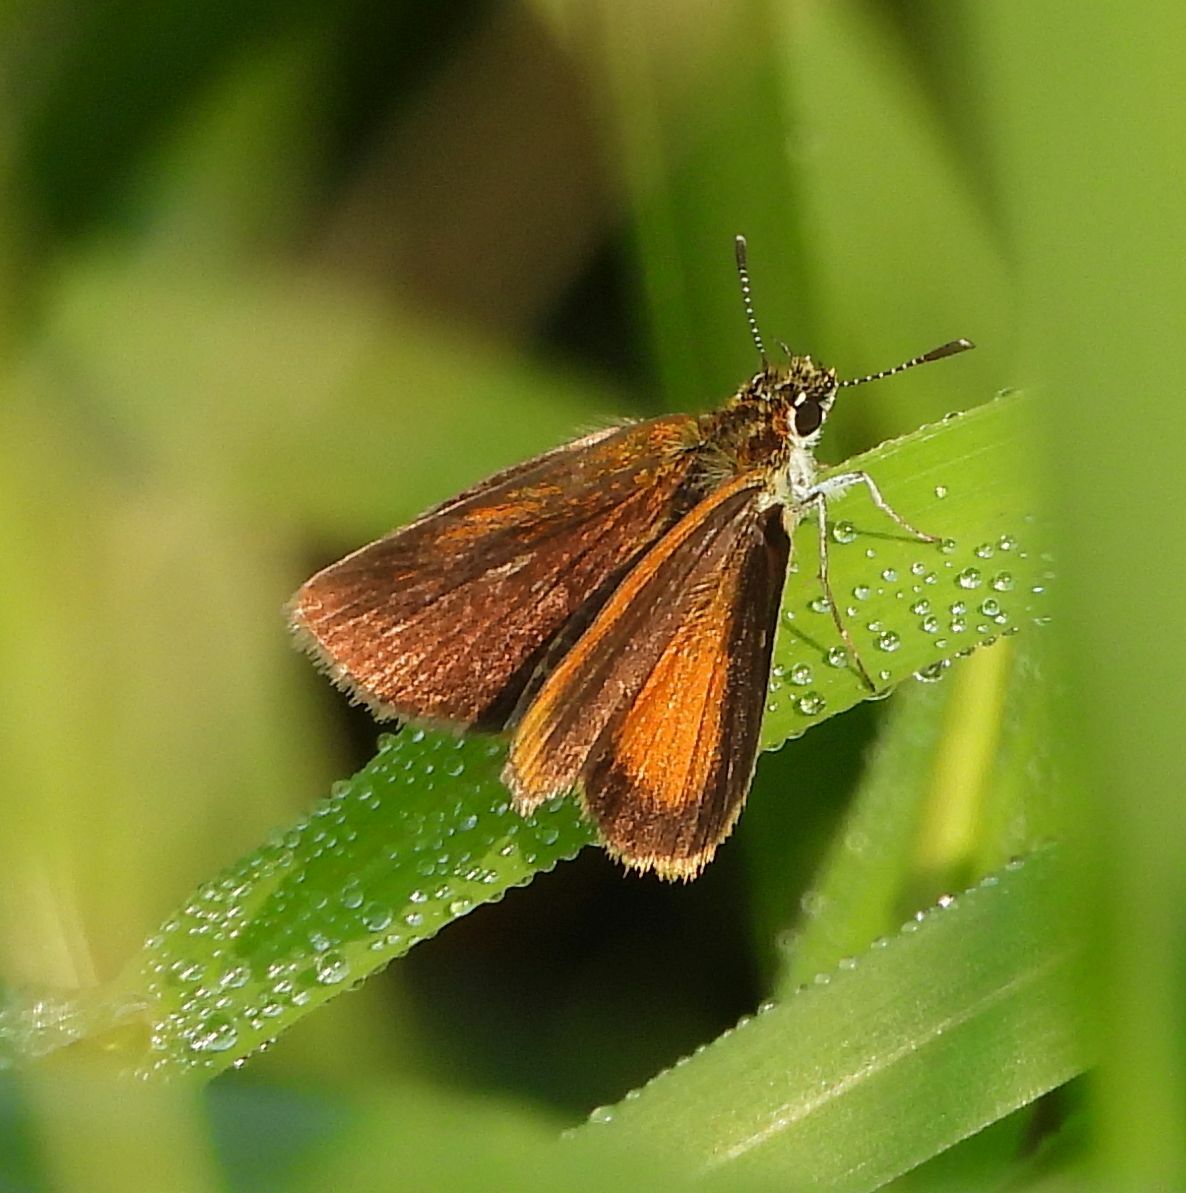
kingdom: Animalia
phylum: Arthropoda
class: Insecta
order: Lepidoptera
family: Hesperiidae
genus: Ancyloxypha
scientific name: Ancyloxypha numitor
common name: Least skipper
